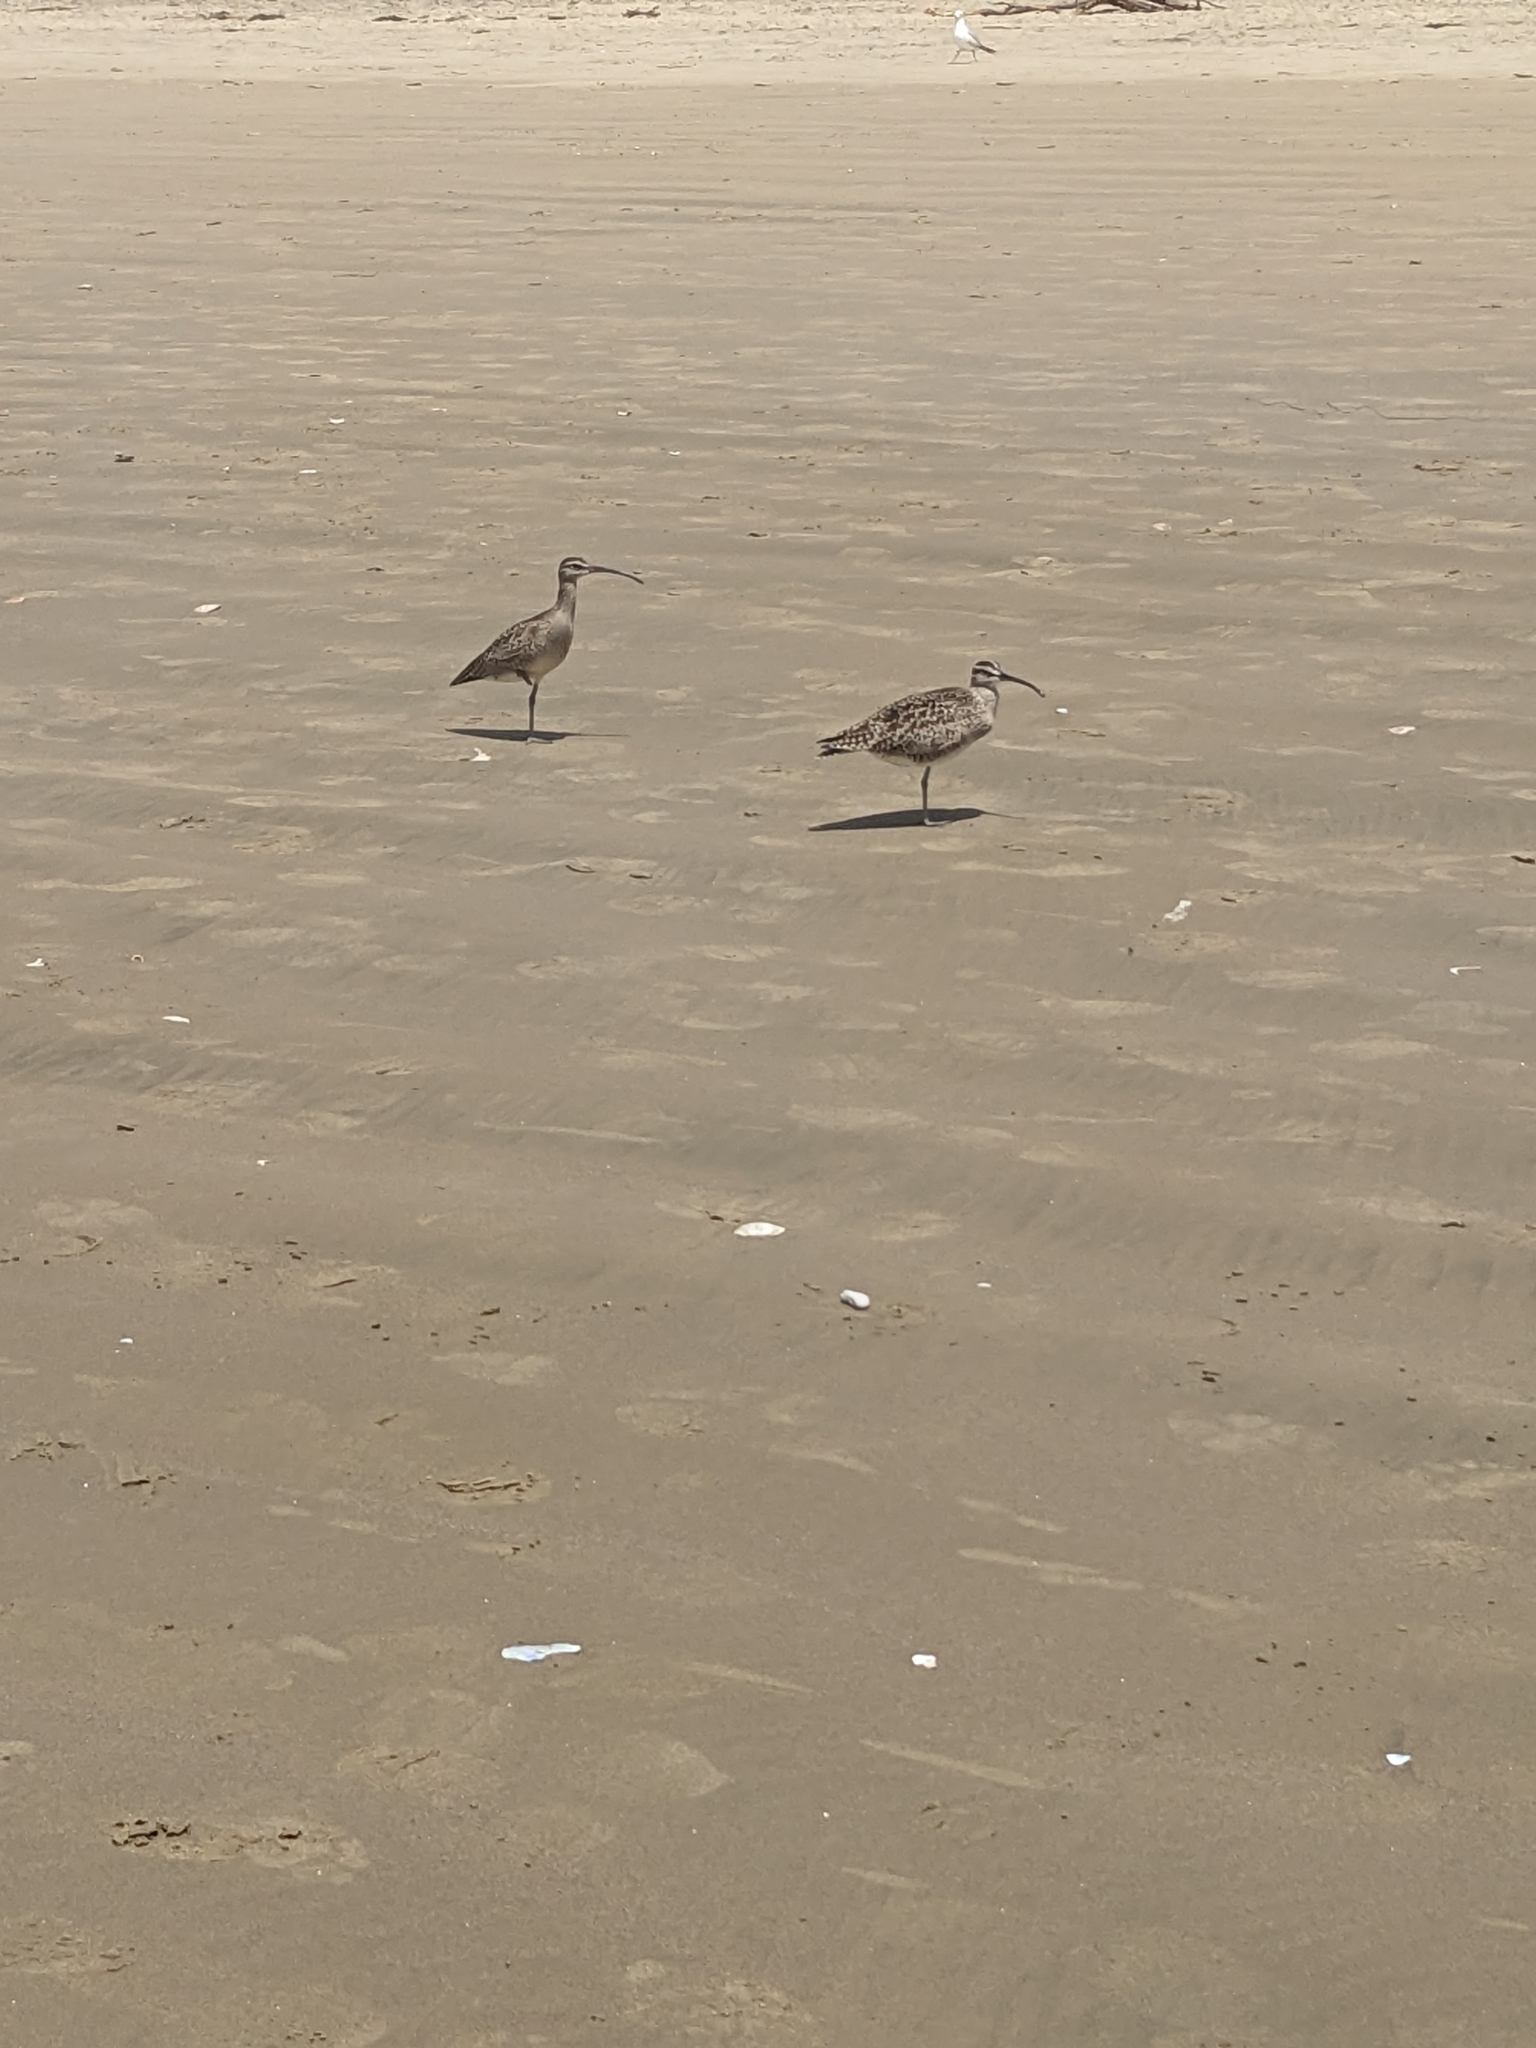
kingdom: Animalia
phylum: Chordata
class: Aves
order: Charadriiformes
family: Scolopacidae
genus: Numenius
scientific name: Numenius phaeopus
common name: Whimbrel
